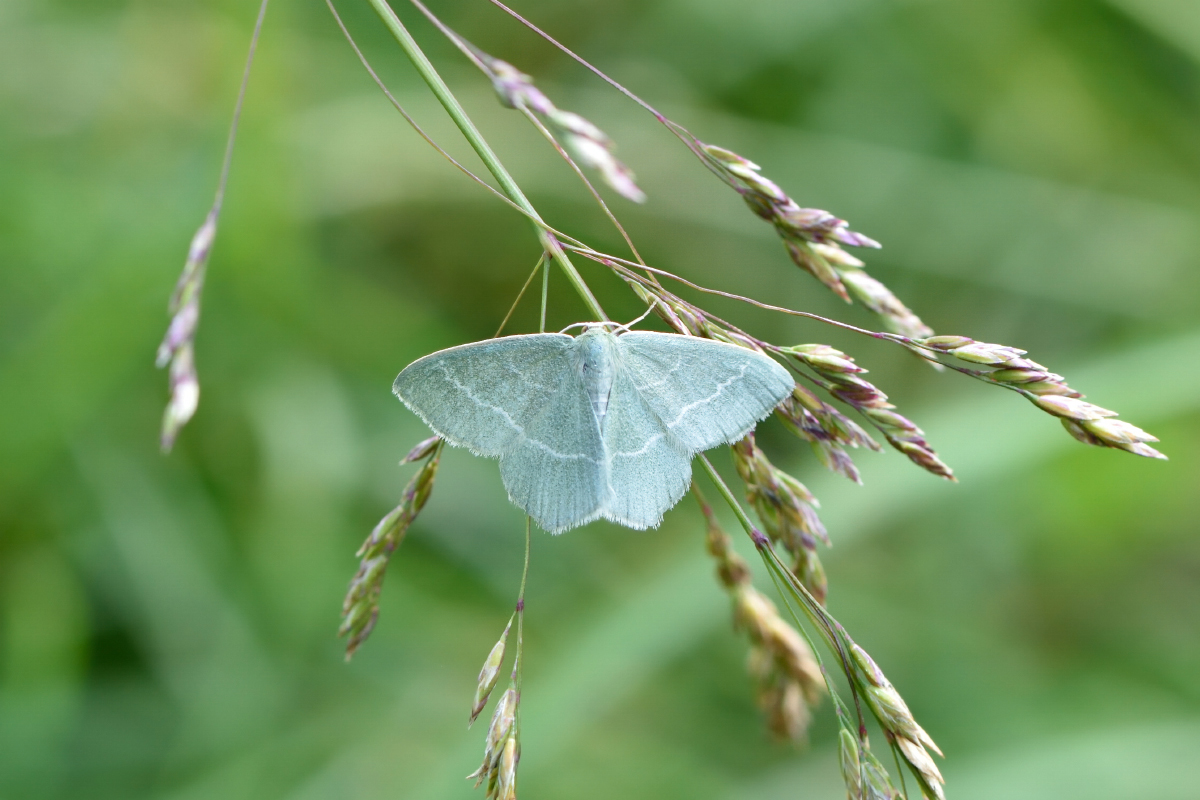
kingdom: Animalia
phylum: Arthropoda
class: Insecta
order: Lepidoptera
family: Geometridae
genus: Chlorissa
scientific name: Chlorissa viridata
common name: Small grass emerald
